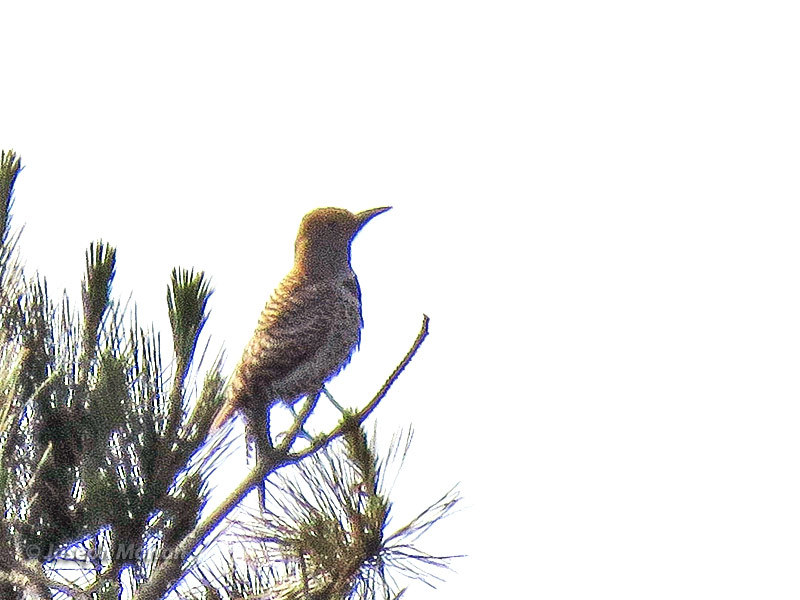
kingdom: Animalia
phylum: Chordata
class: Aves
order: Piciformes
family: Picidae
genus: Colaptes
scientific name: Colaptes auratus
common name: Northern flicker
